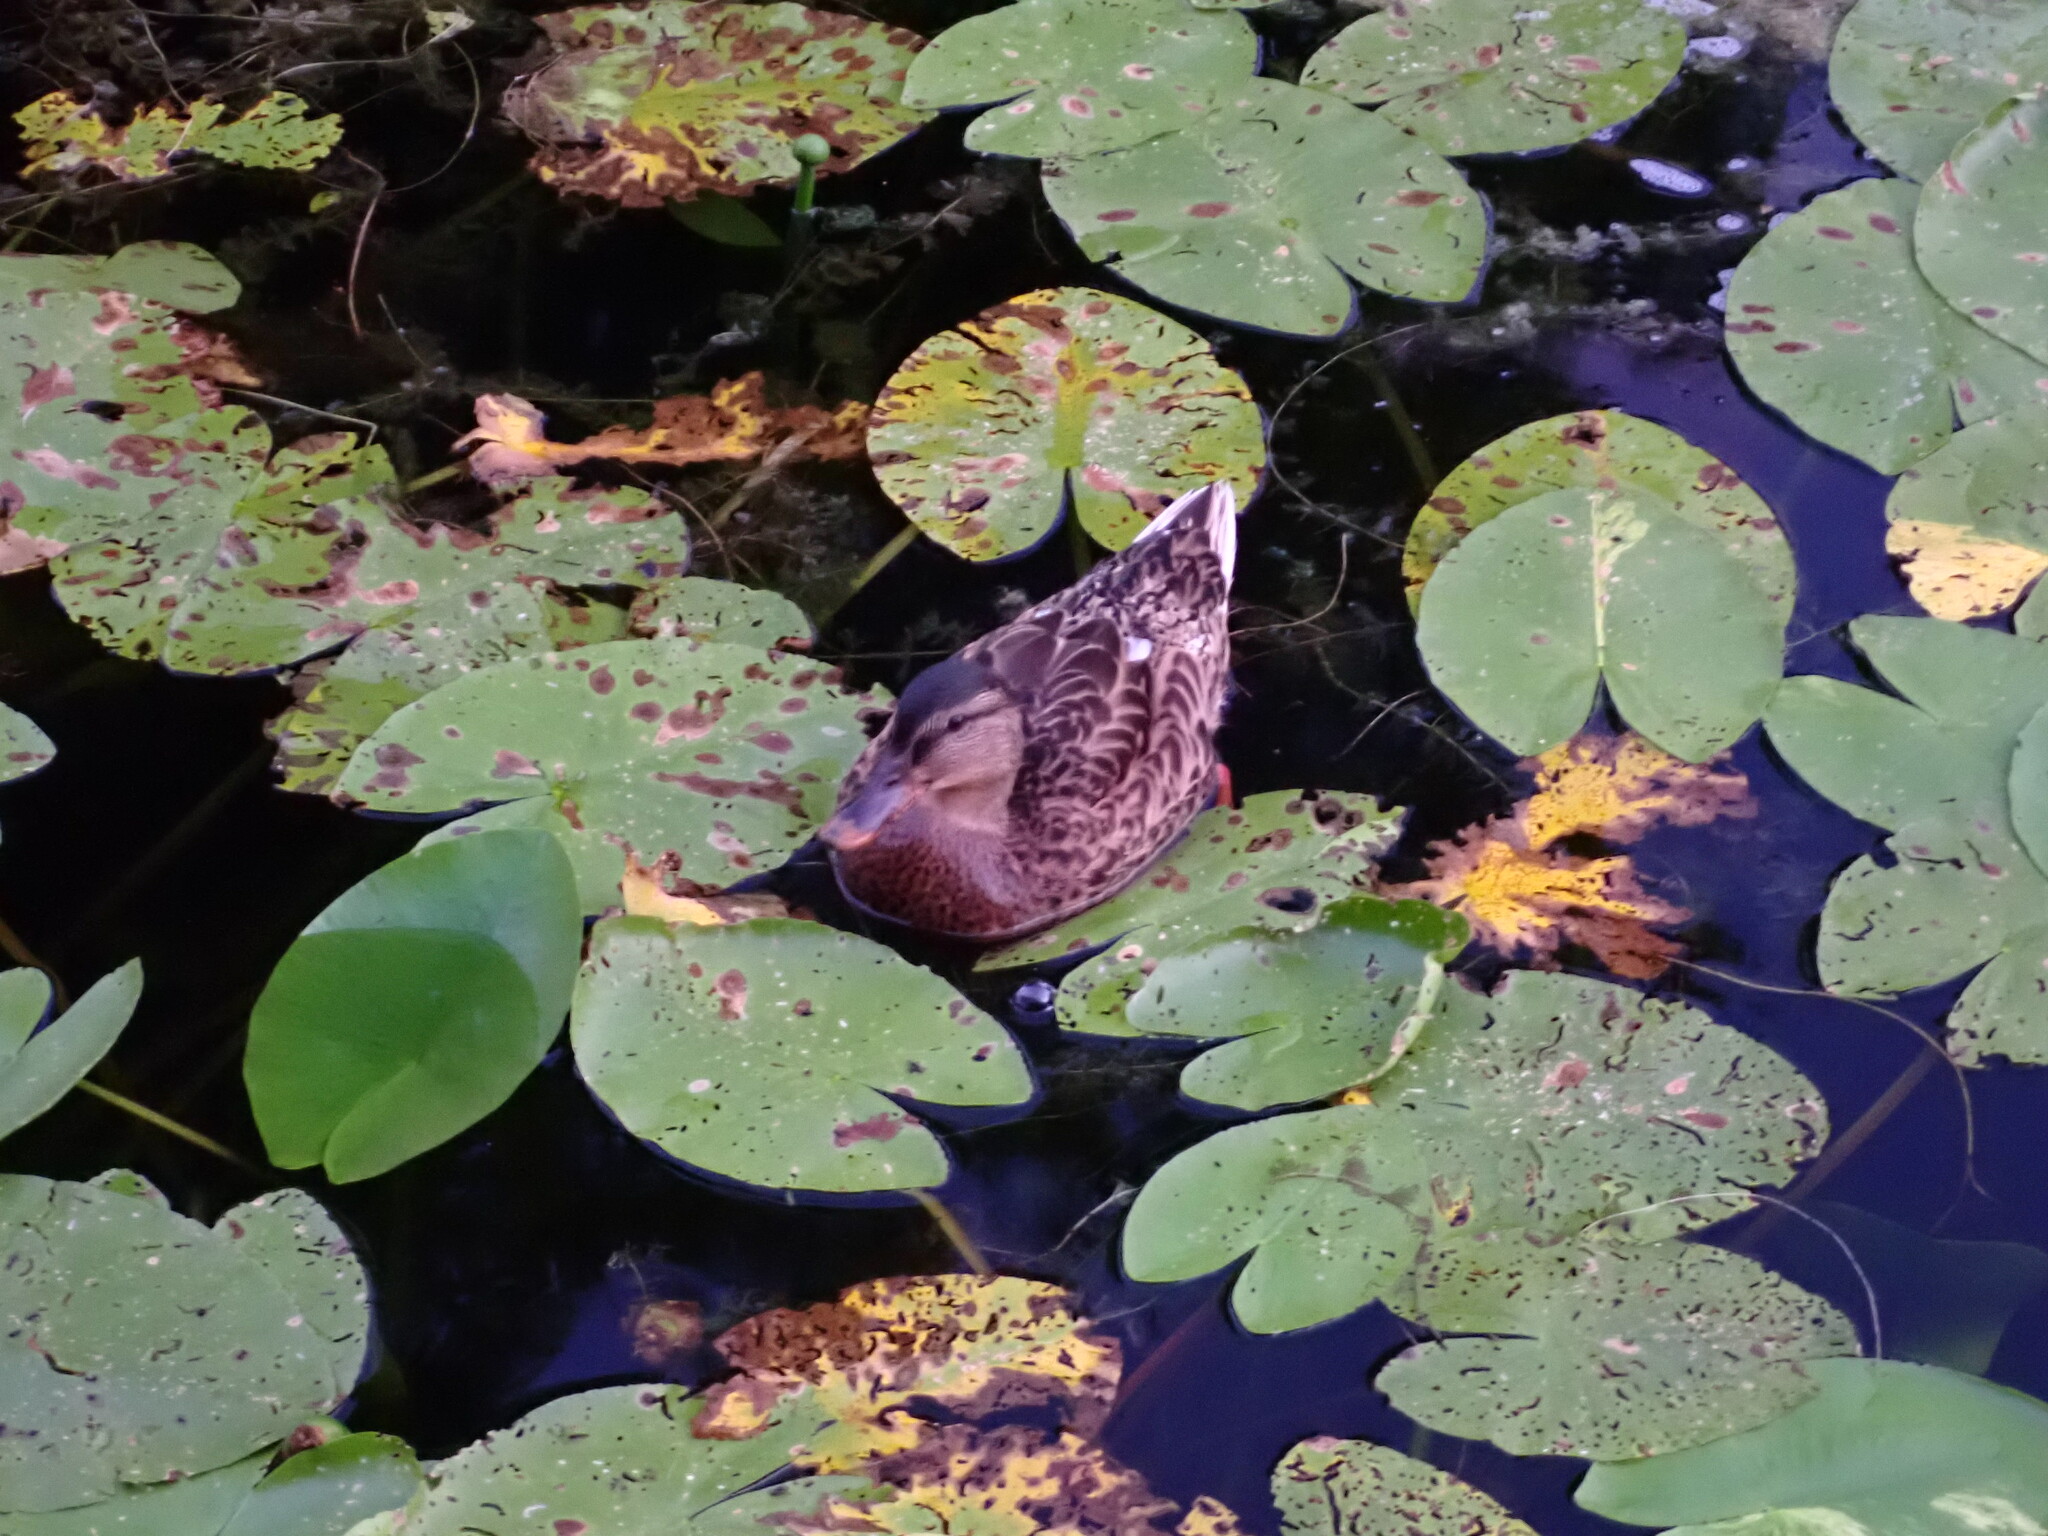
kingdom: Animalia
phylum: Chordata
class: Aves
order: Anseriformes
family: Anatidae
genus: Anas
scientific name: Anas platyrhynchos
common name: Mallard
